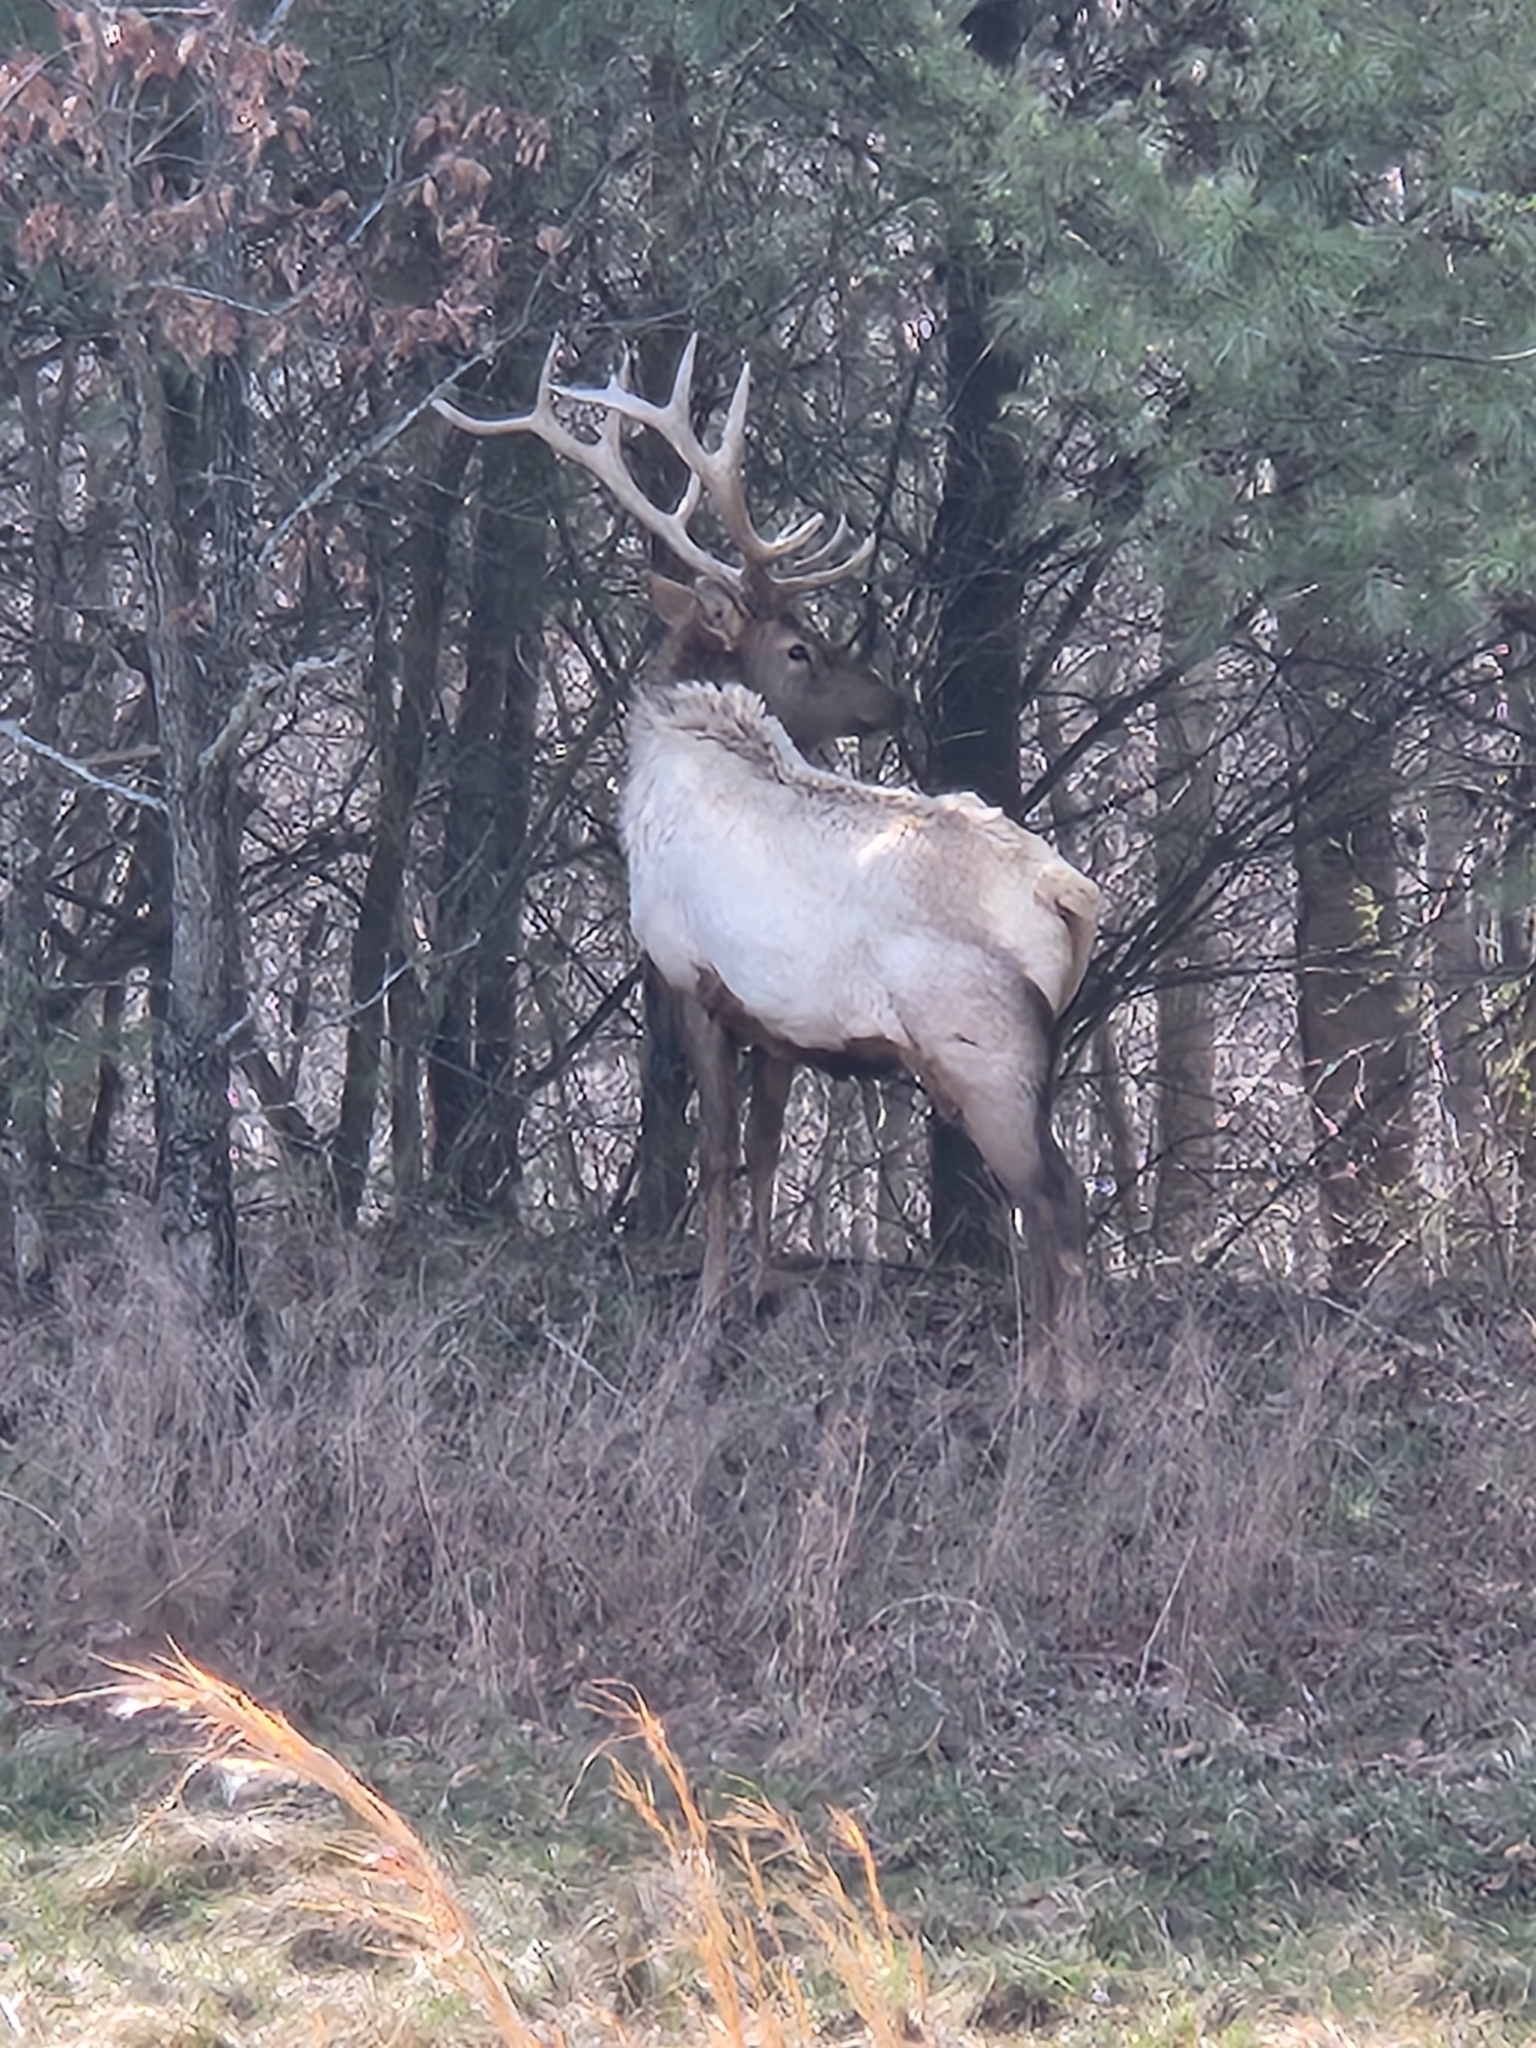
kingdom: Animalia
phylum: Chordata
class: Mammalia
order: Artiodactyla
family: Cervidae
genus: Cervus
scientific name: Cervus elaphus
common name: Red deer
